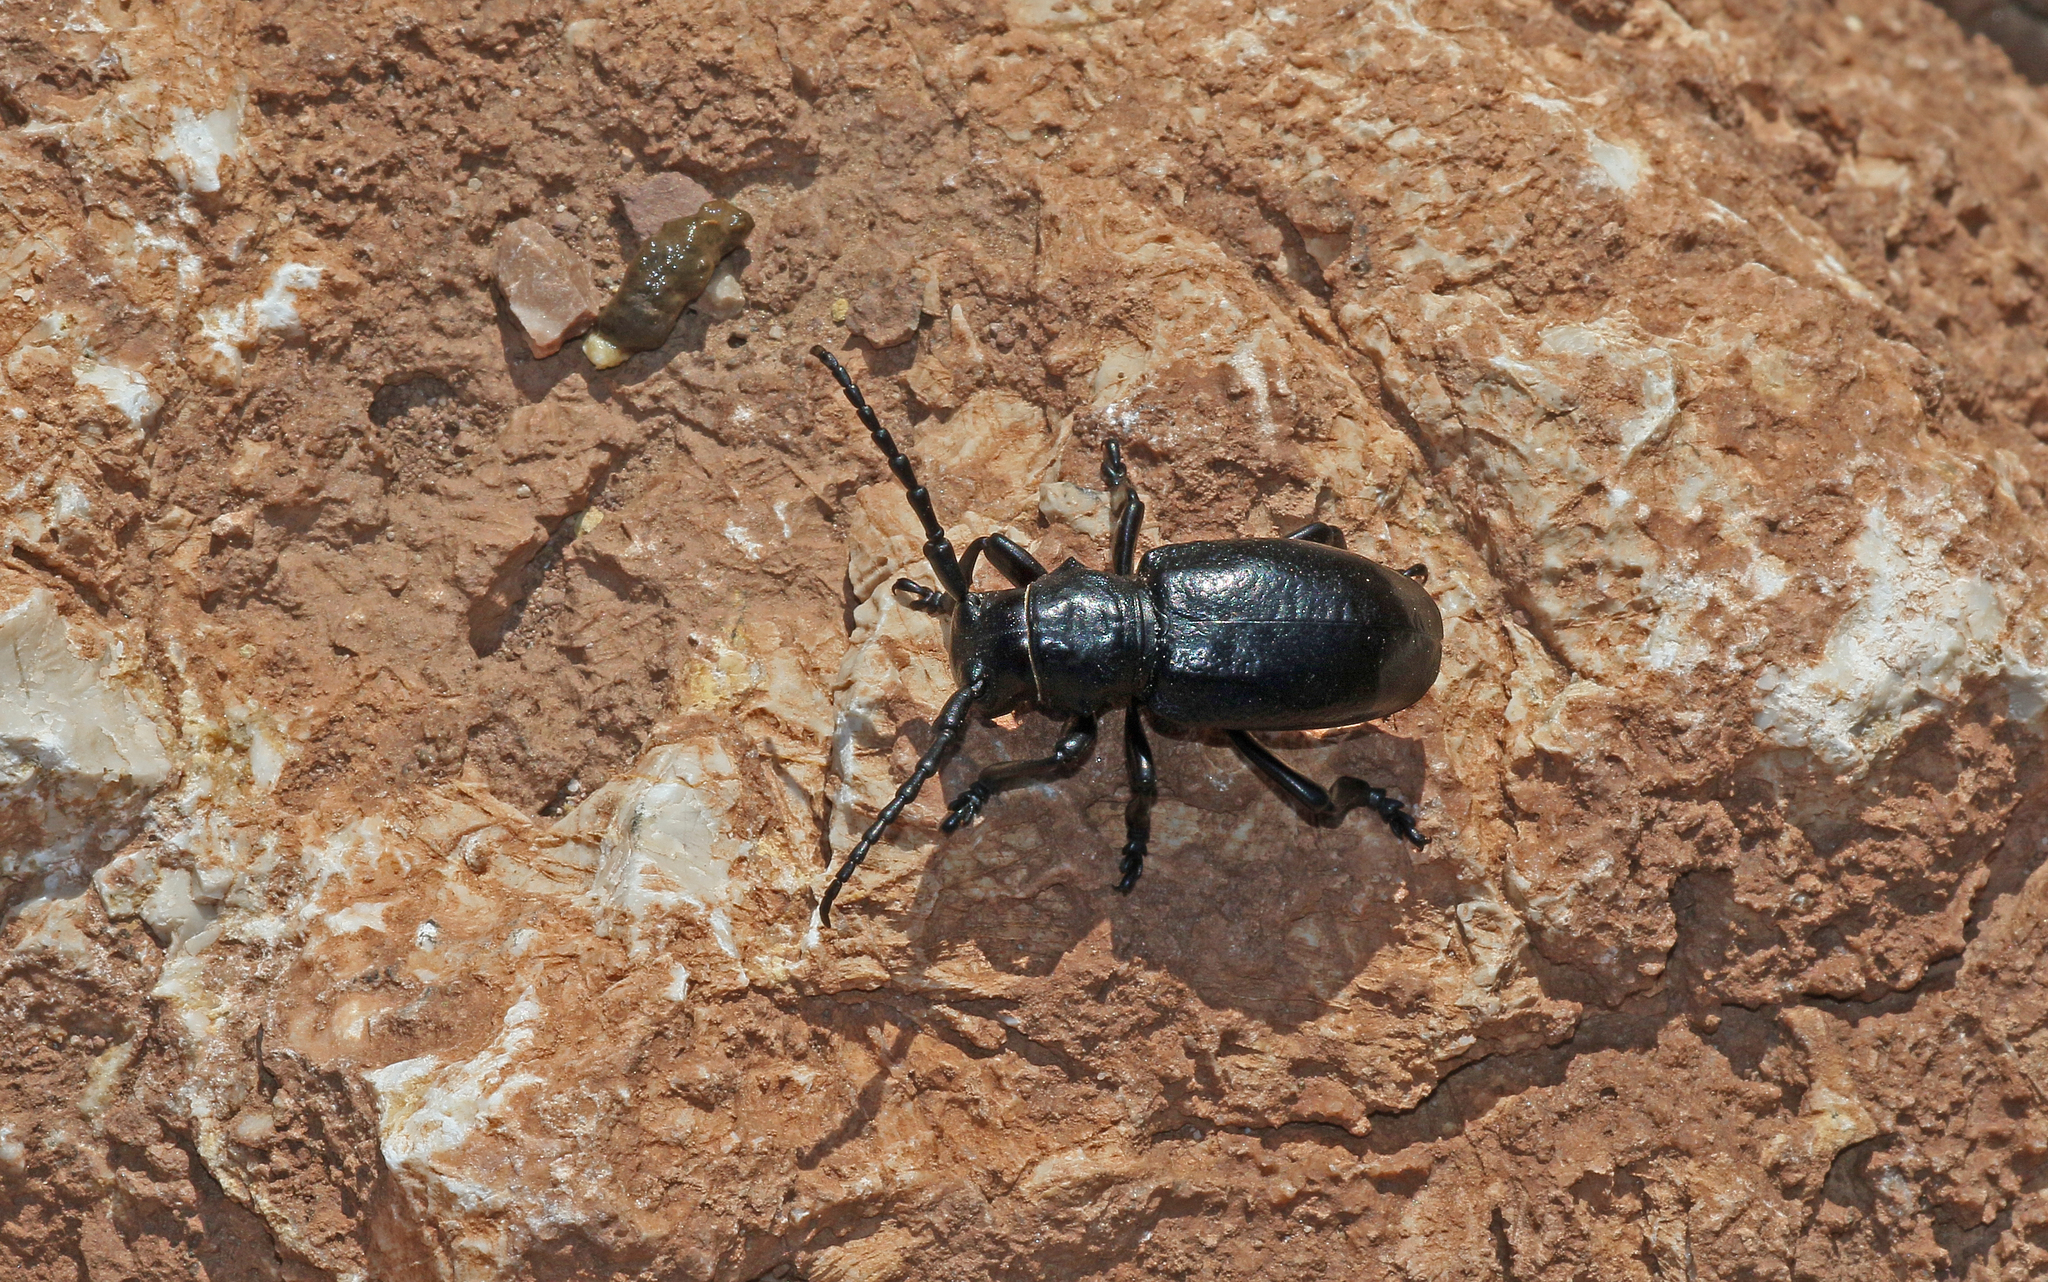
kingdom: Animalia
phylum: Arthropoda
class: Insecta
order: Coleoptera
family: Cerambycidae
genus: Herophila
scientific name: Herophila fairmairei
